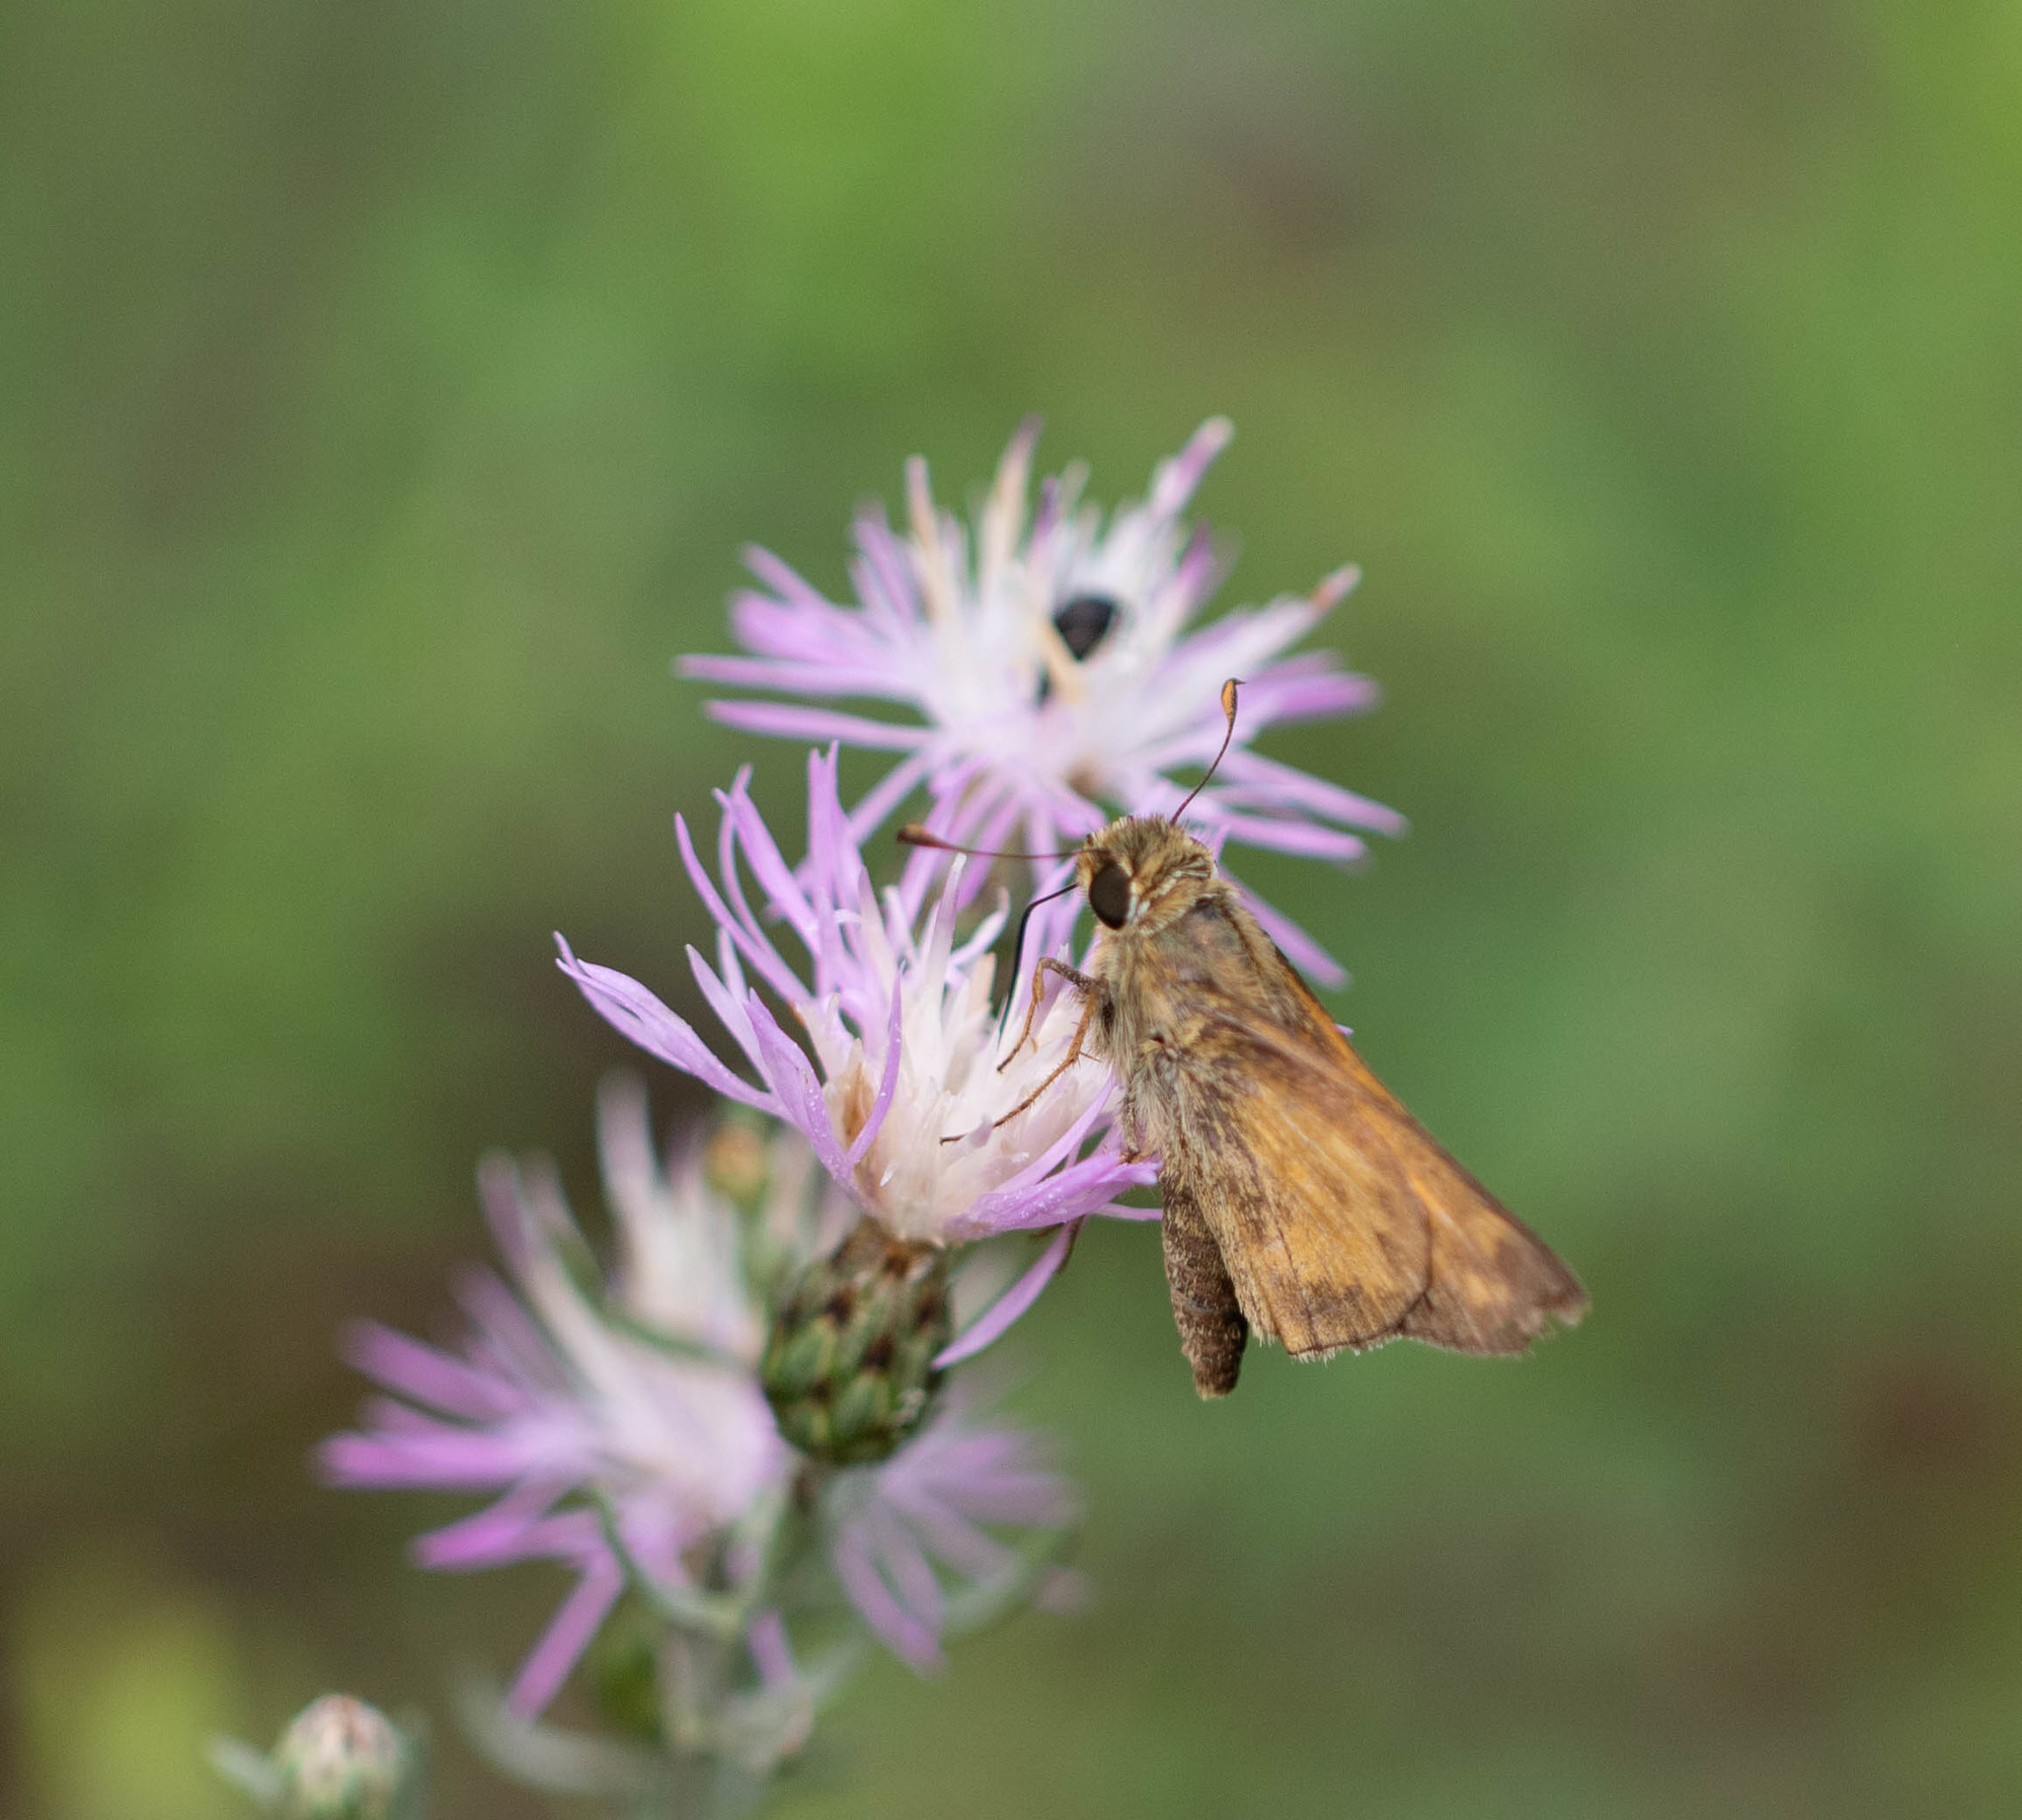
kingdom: Animalia
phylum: Arthropoda
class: Insecta
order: Lepidoptera
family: Hesperiidae
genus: Atalopedes
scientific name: Atalopedes
